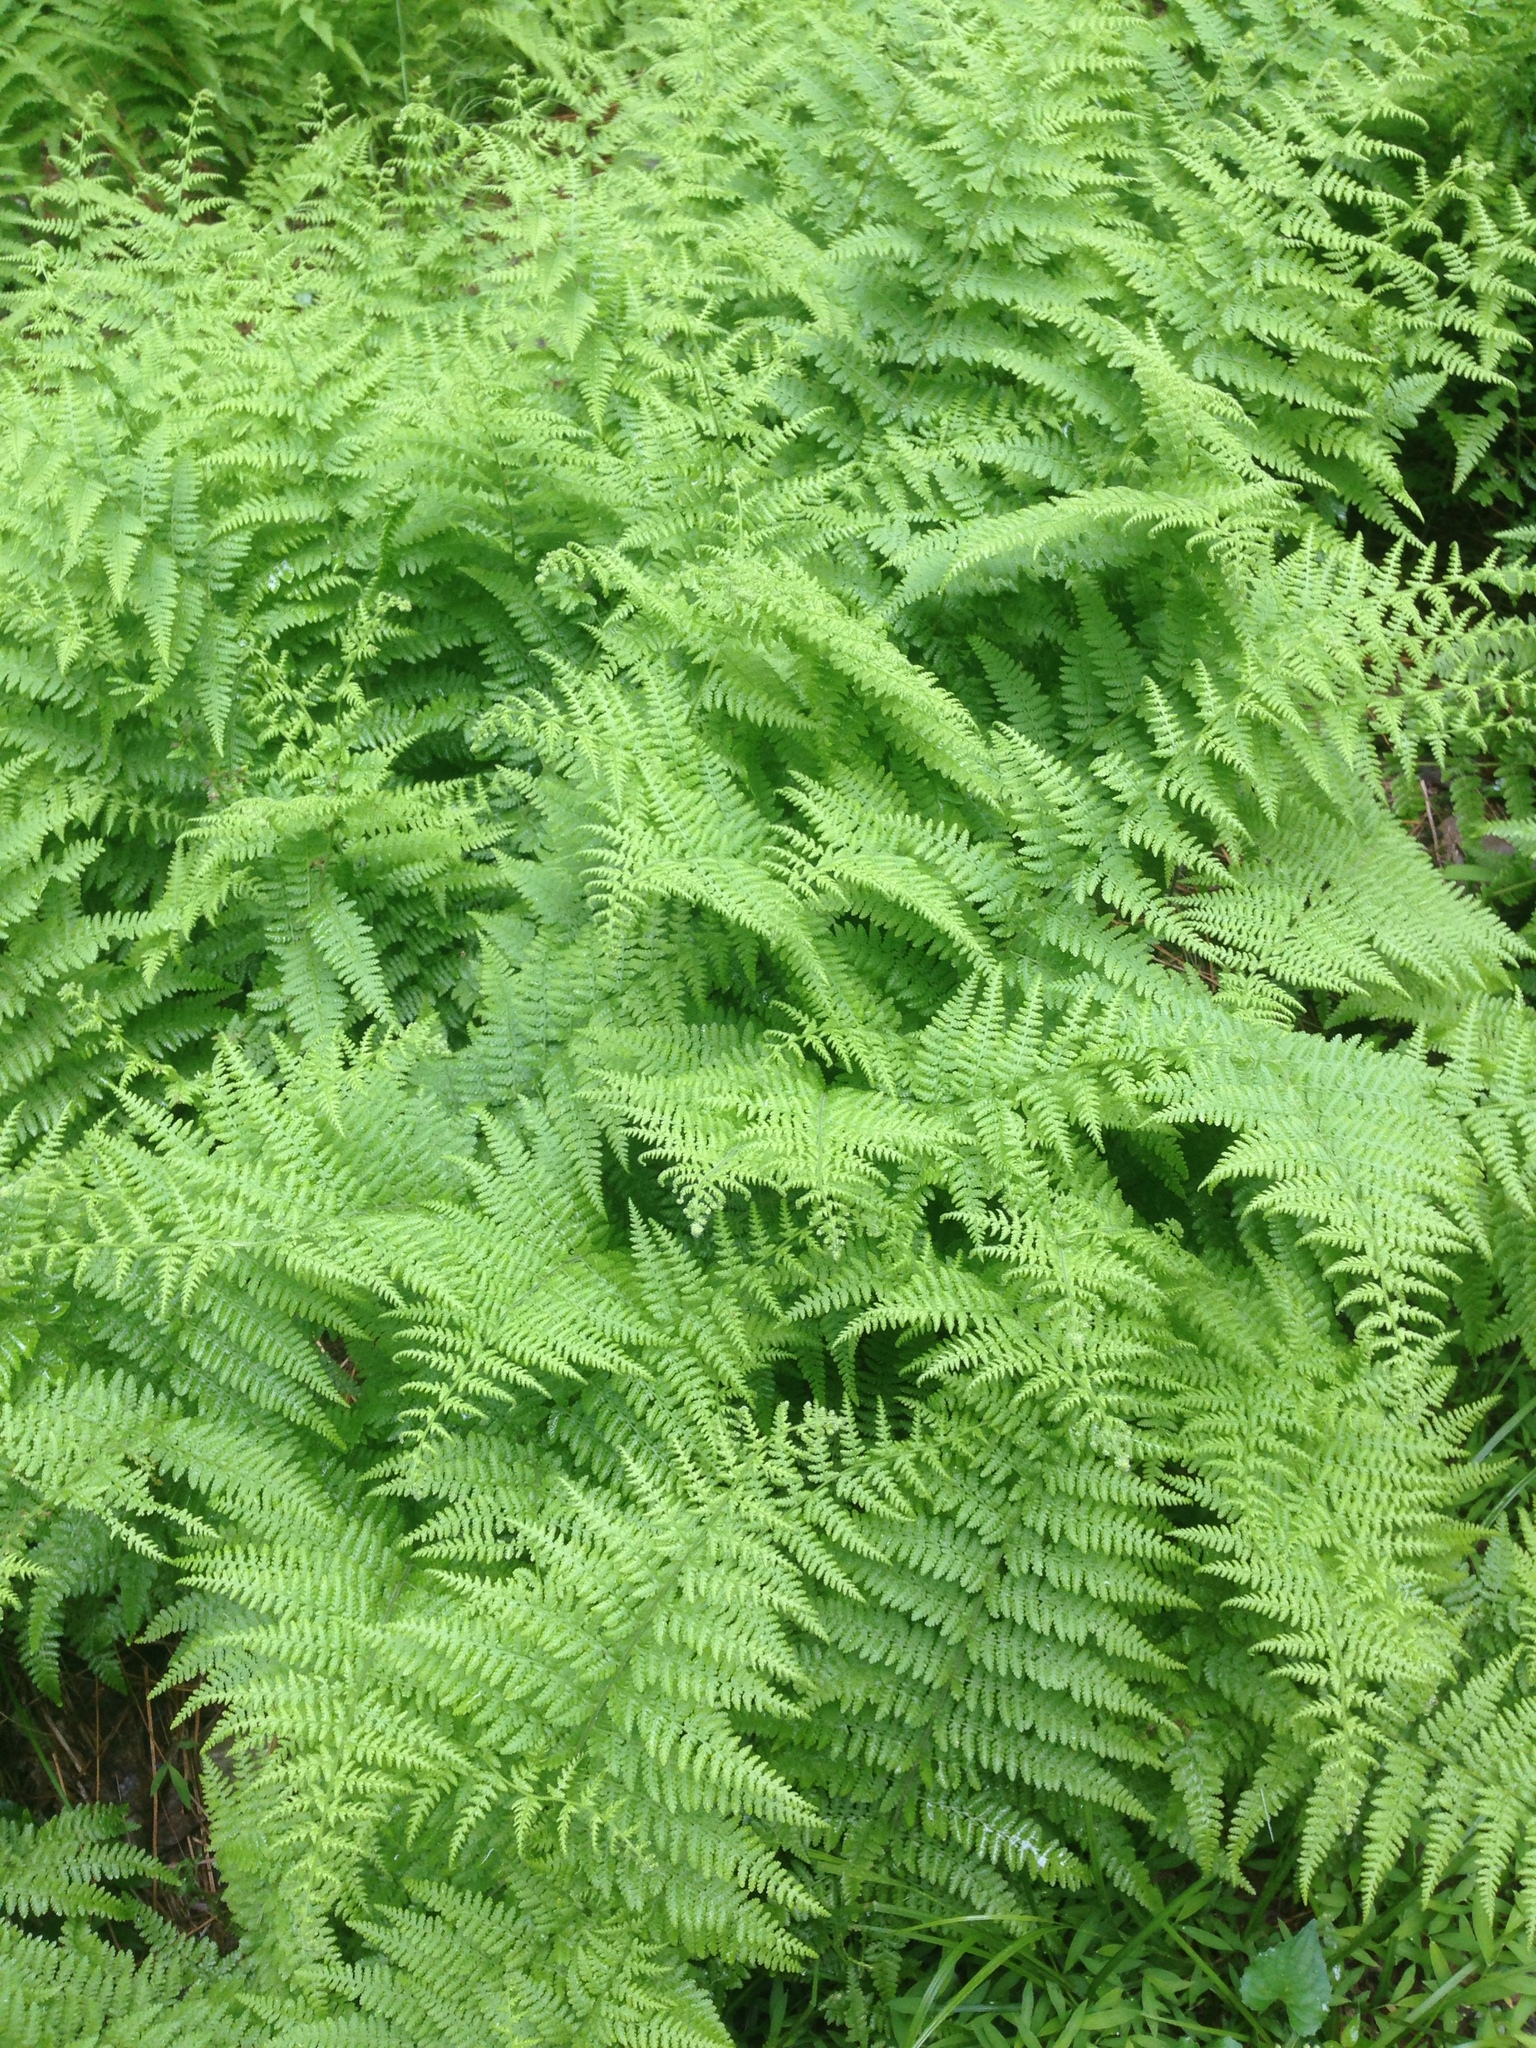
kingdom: Plantae
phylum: Tracheophyta
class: Polypodiopsida
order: Polypodiales
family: Dennstaedtiaceae
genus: Sitobolium
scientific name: Sitobolium punctilobum
